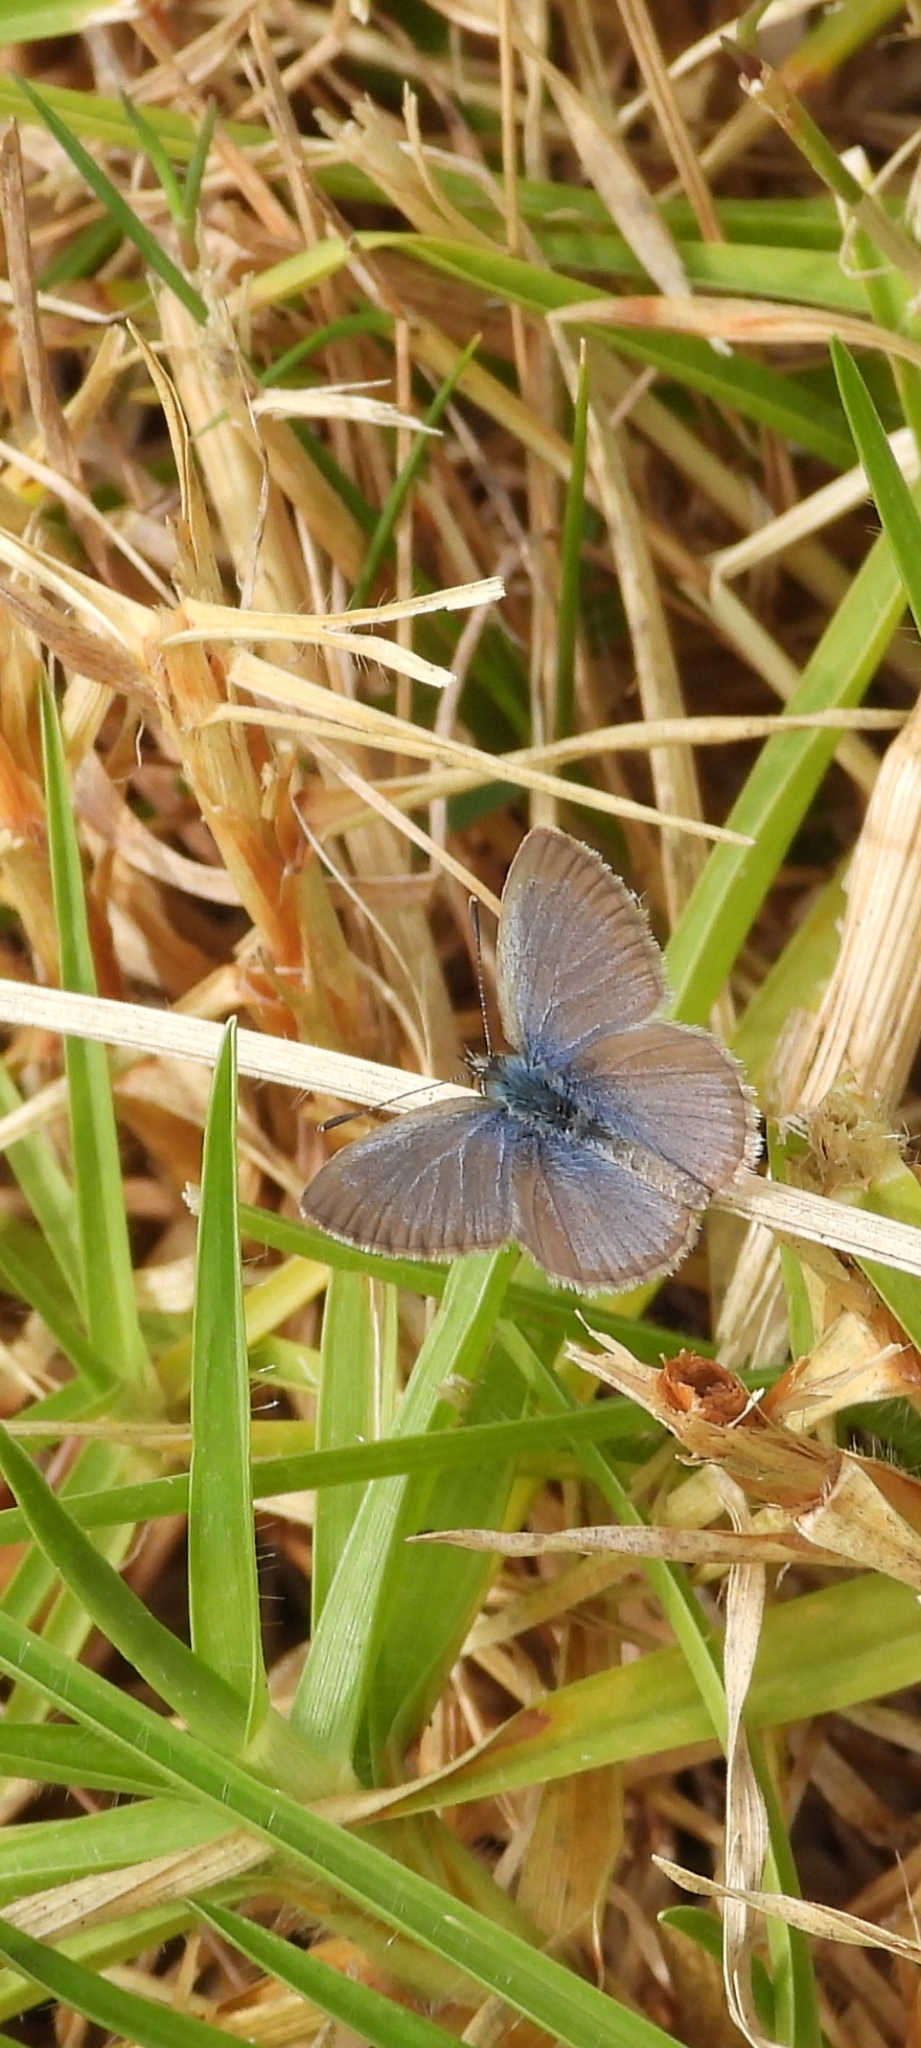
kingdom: Animalia
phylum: Arthropoda
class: Insecta
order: Lepidoptera
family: Lycaenidae
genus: Zizina
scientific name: Zizina labradus
